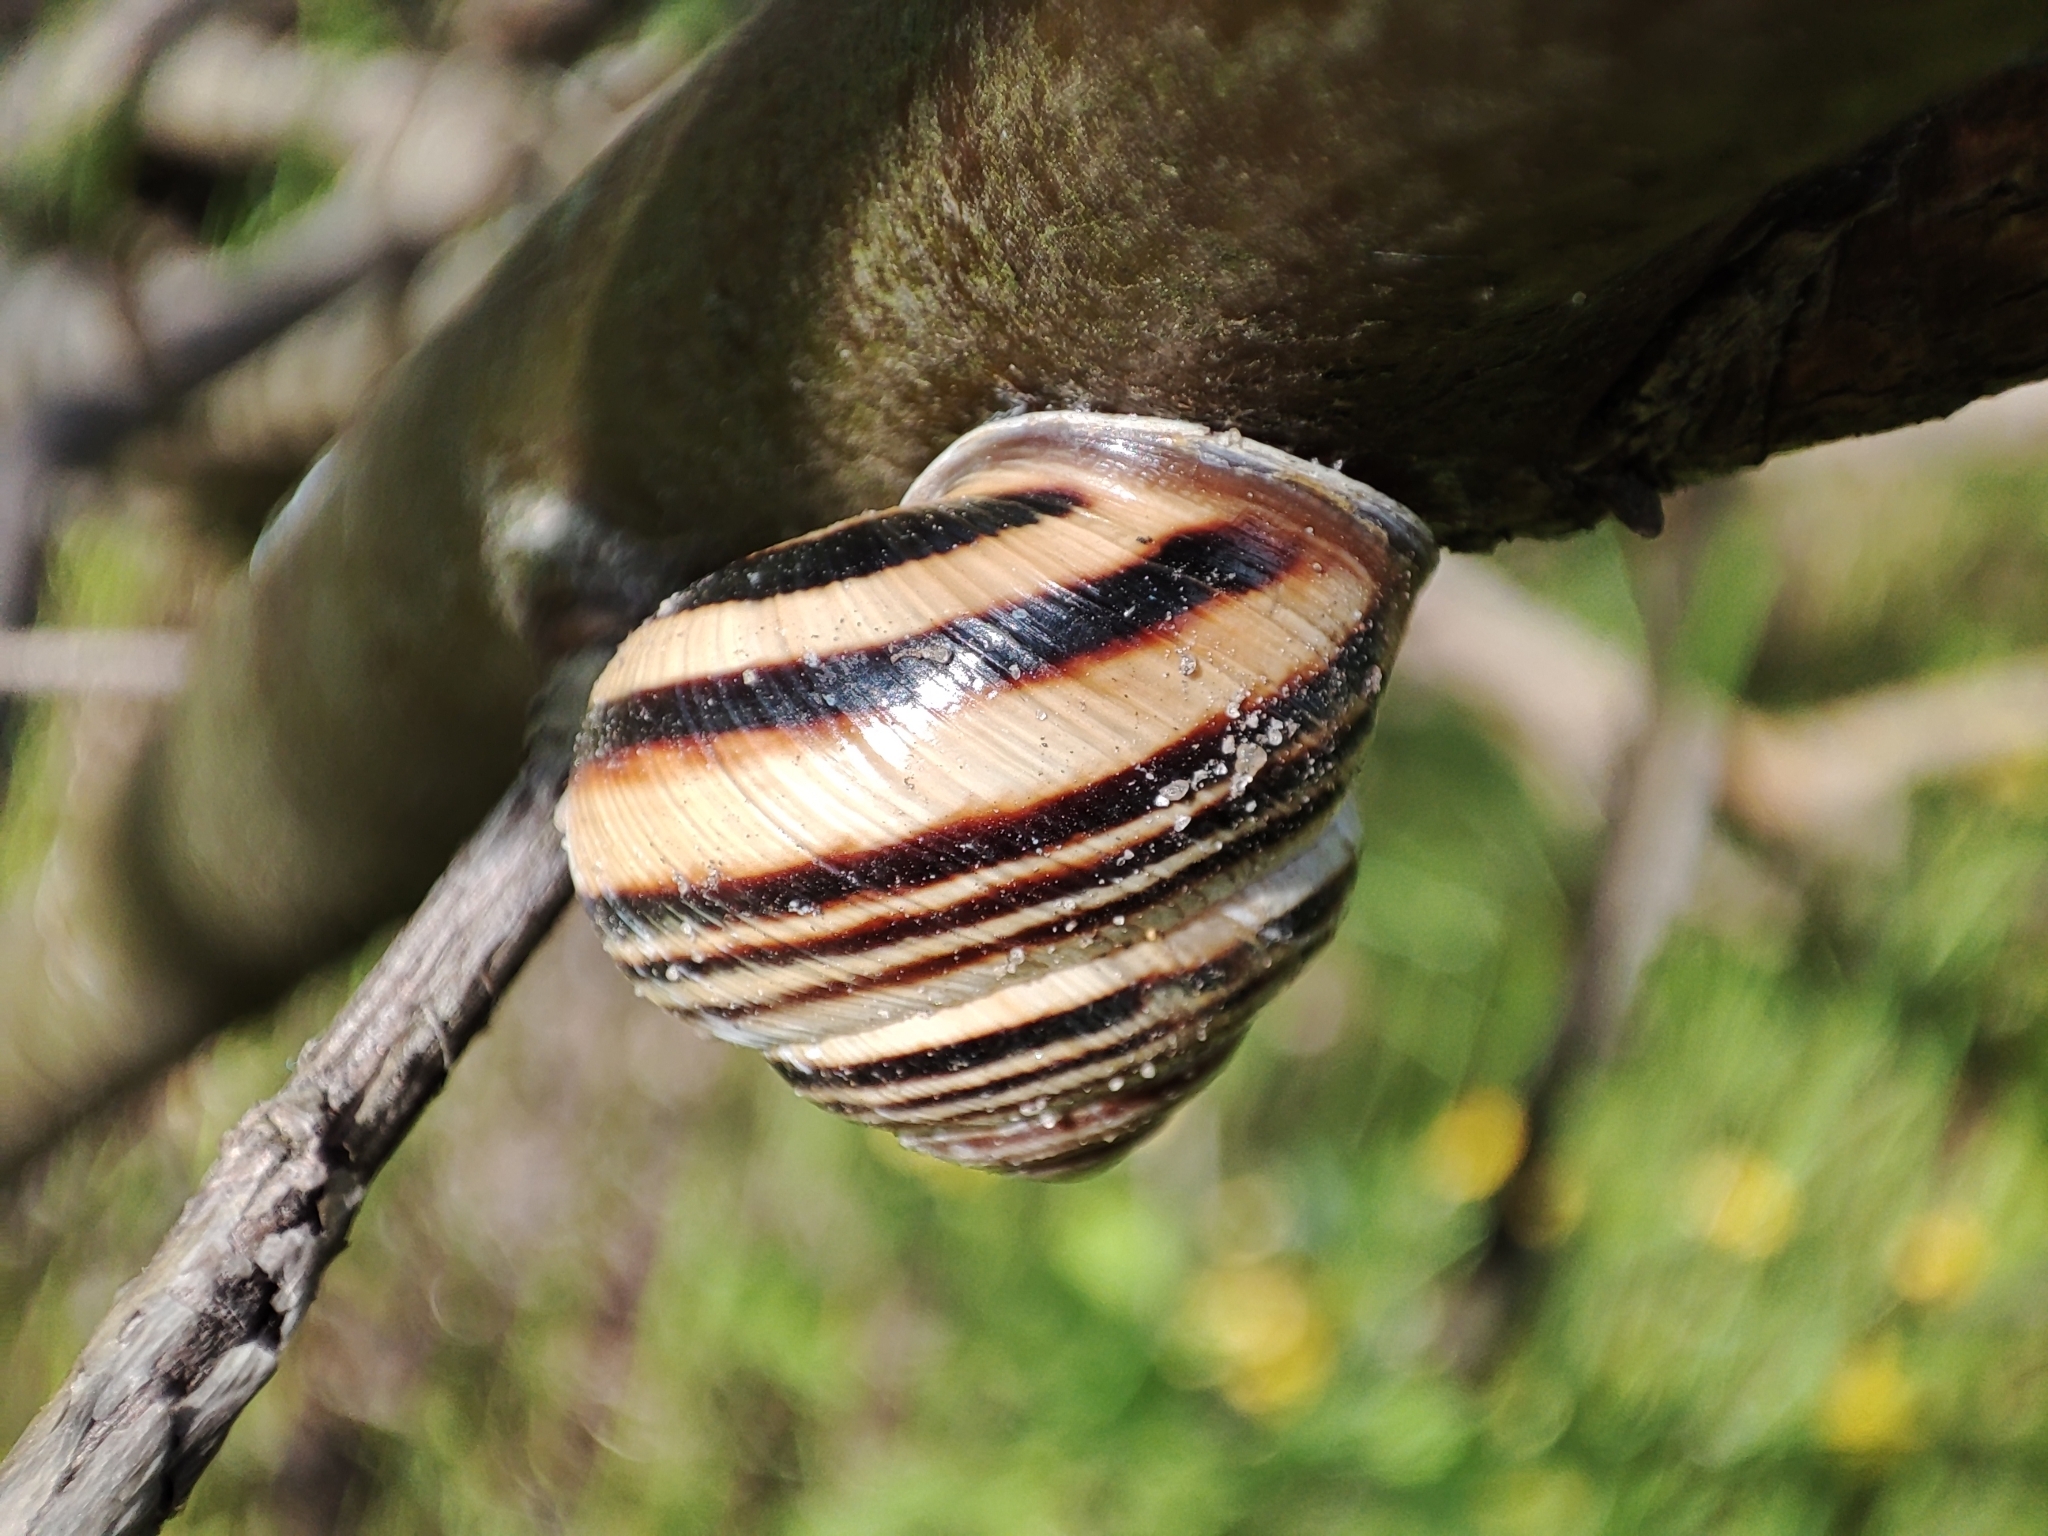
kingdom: Animalia
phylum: Mollusca
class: Gastropoda
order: Stylommatophora
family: Helicidae
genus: Caucasotachea
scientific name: Caucasotachea vindobonensis
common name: European helicid land snail
